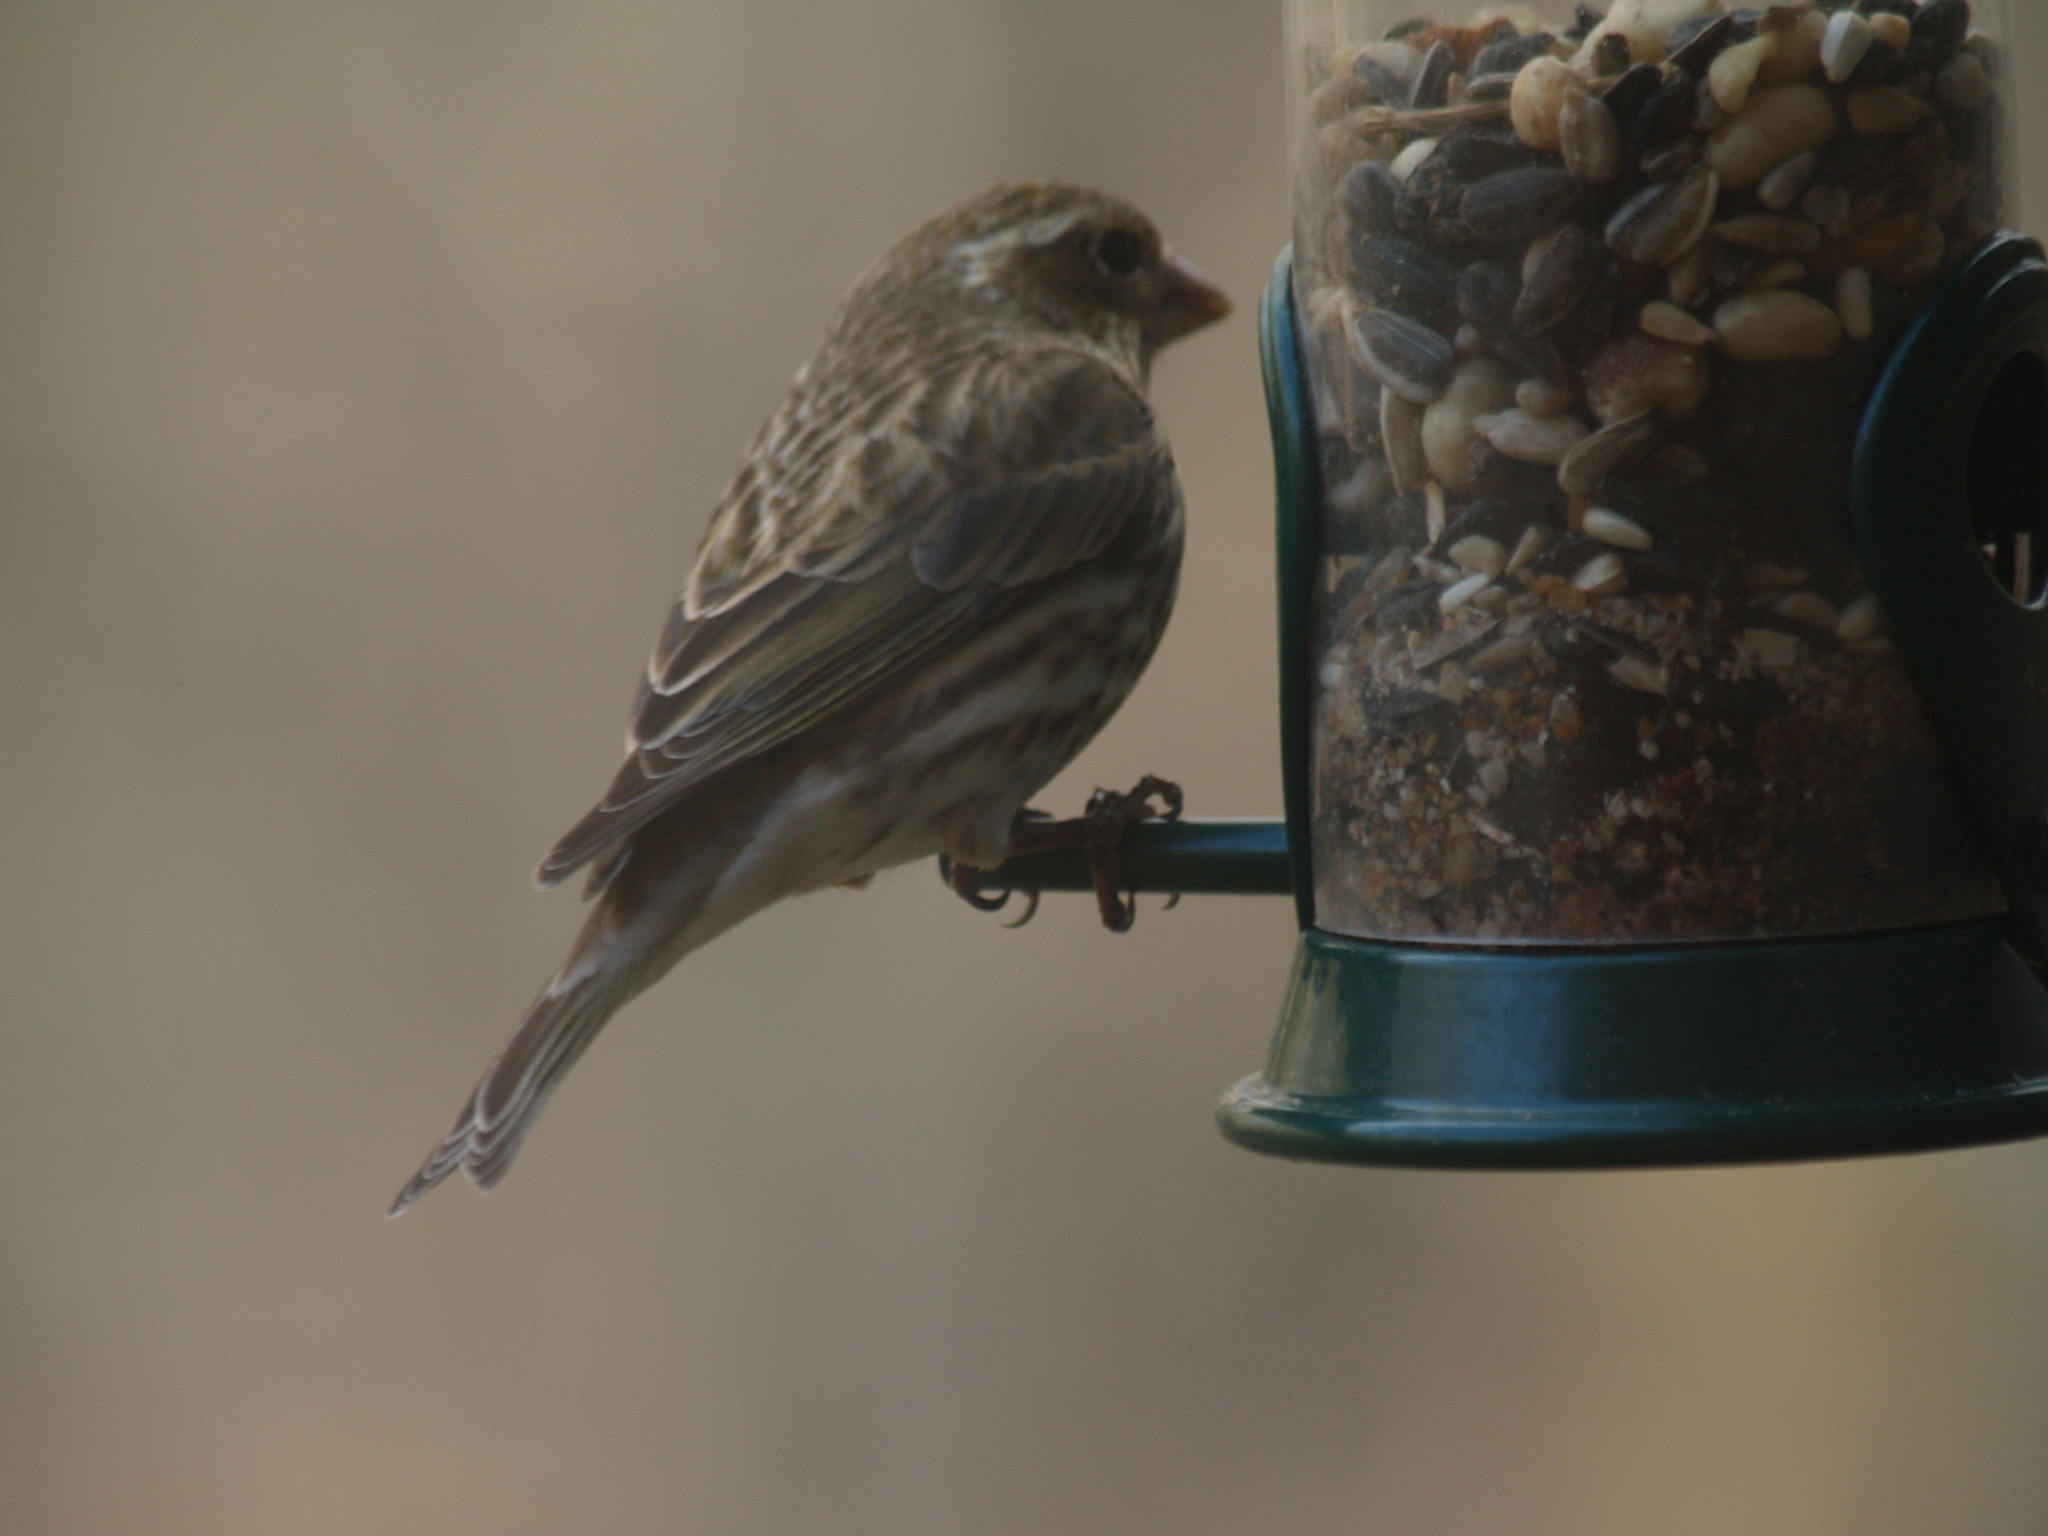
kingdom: Animalia
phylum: Chordata
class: Aves
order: Passeriformes
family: Fringillidae
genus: Haemorhous
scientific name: Haemorhous purpureus
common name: Purple finch
